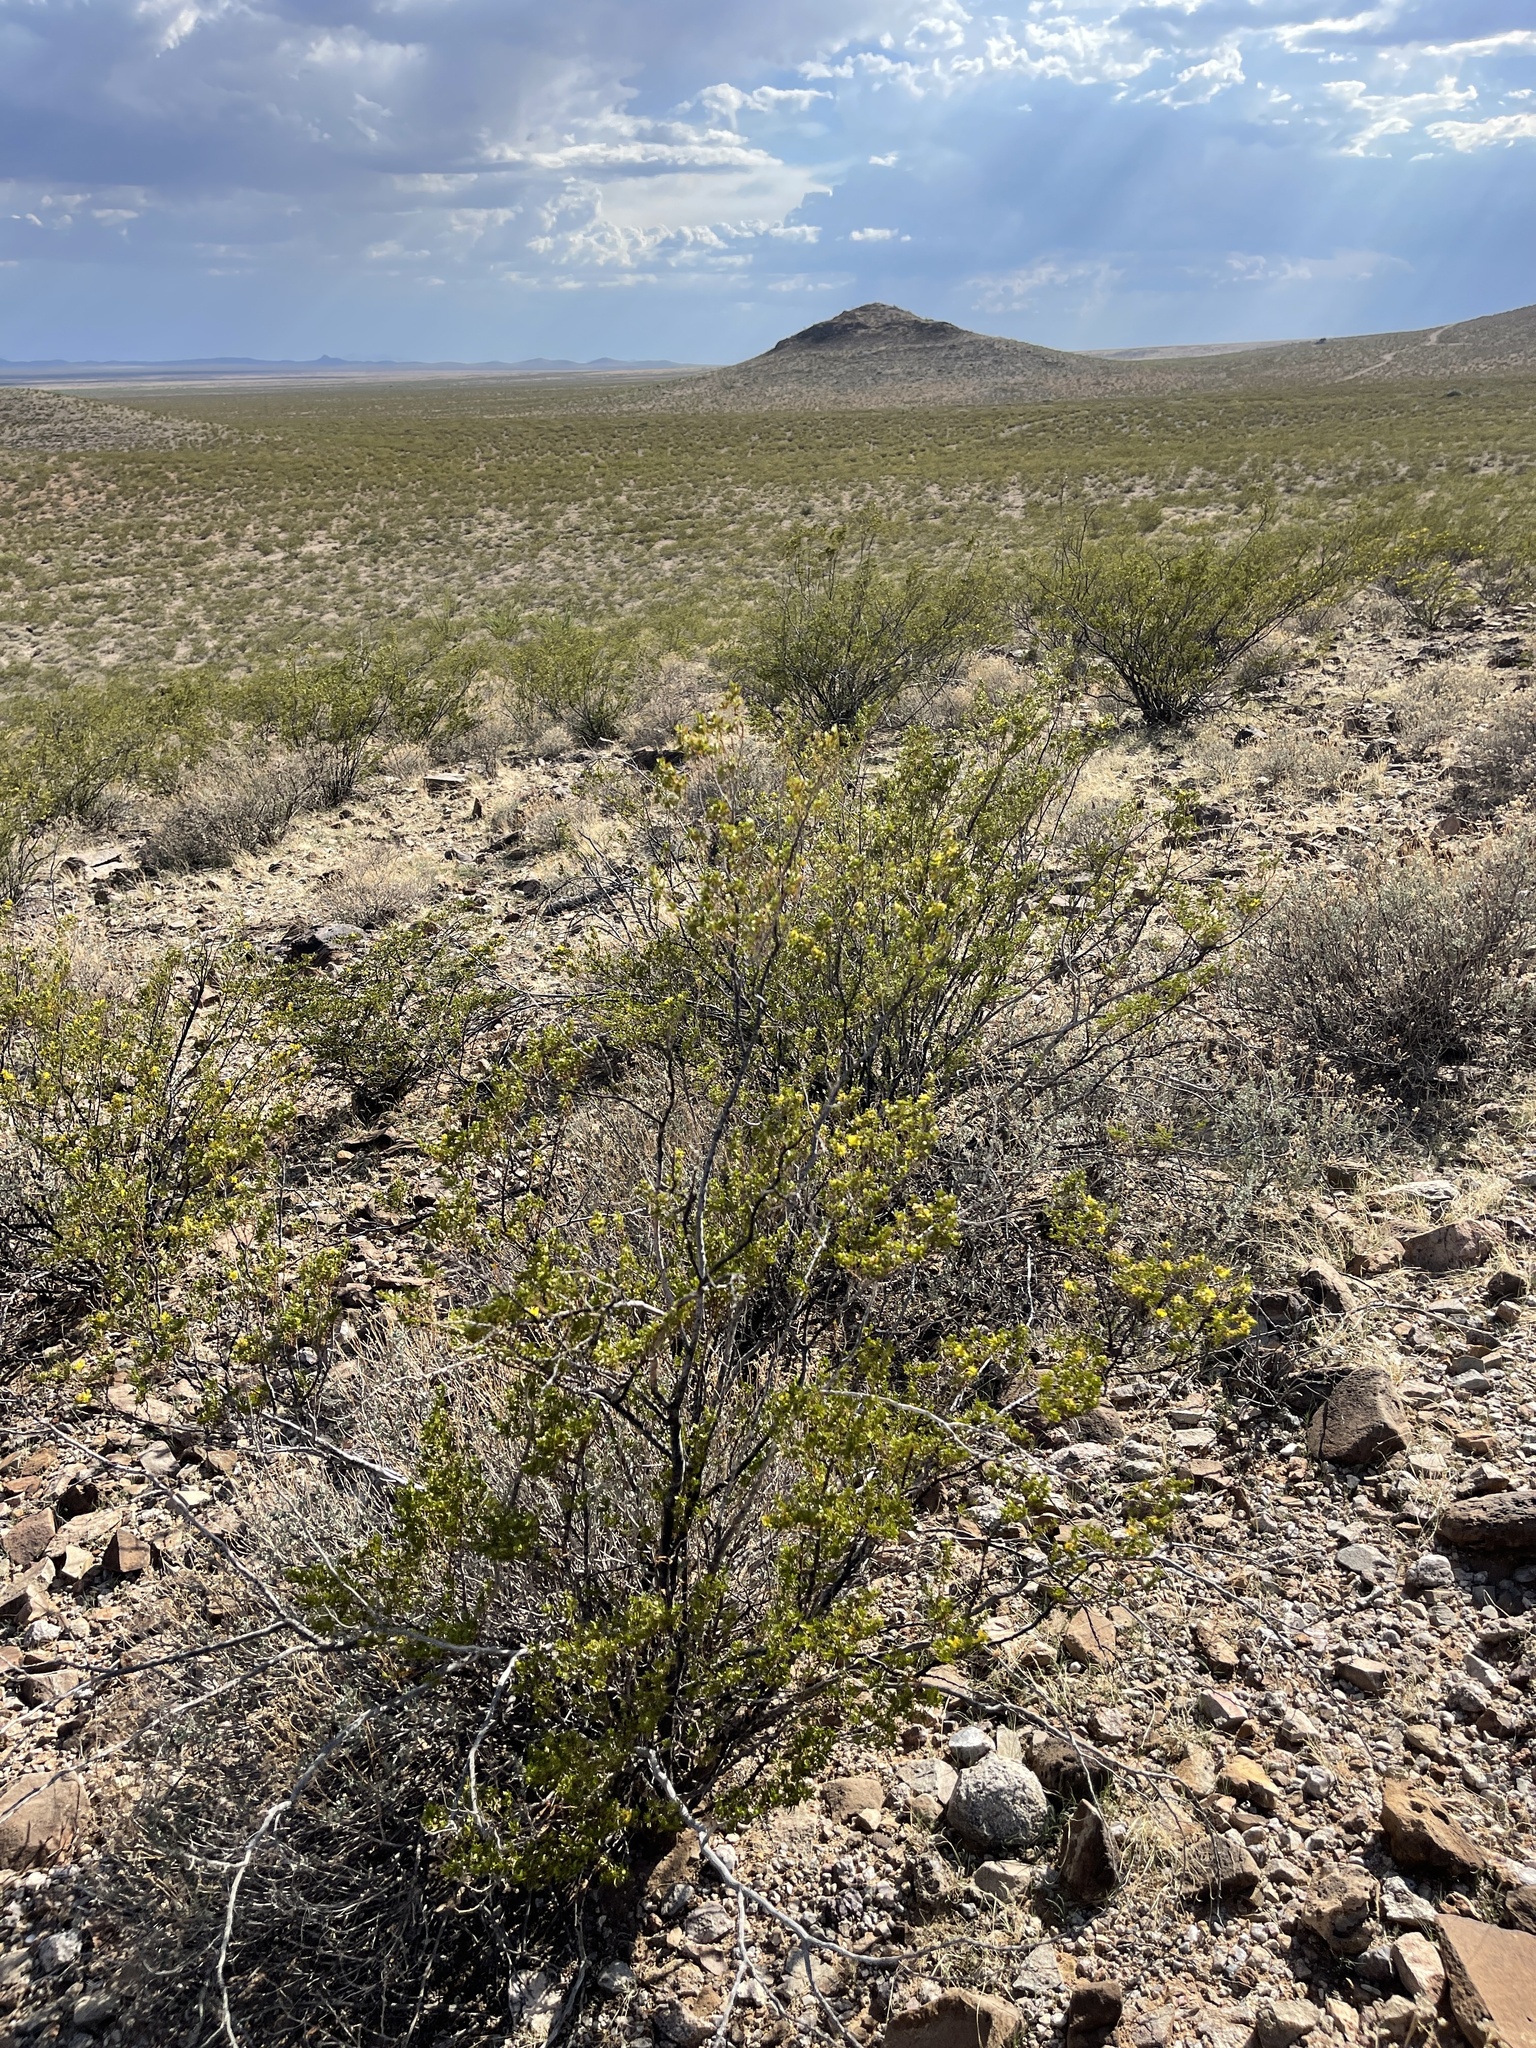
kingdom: Plantae
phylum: Tracheophyta
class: Magnoliopsida
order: Zygophyllales
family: Zygophyllaceae
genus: Larrea
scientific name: Larrea tridentata
